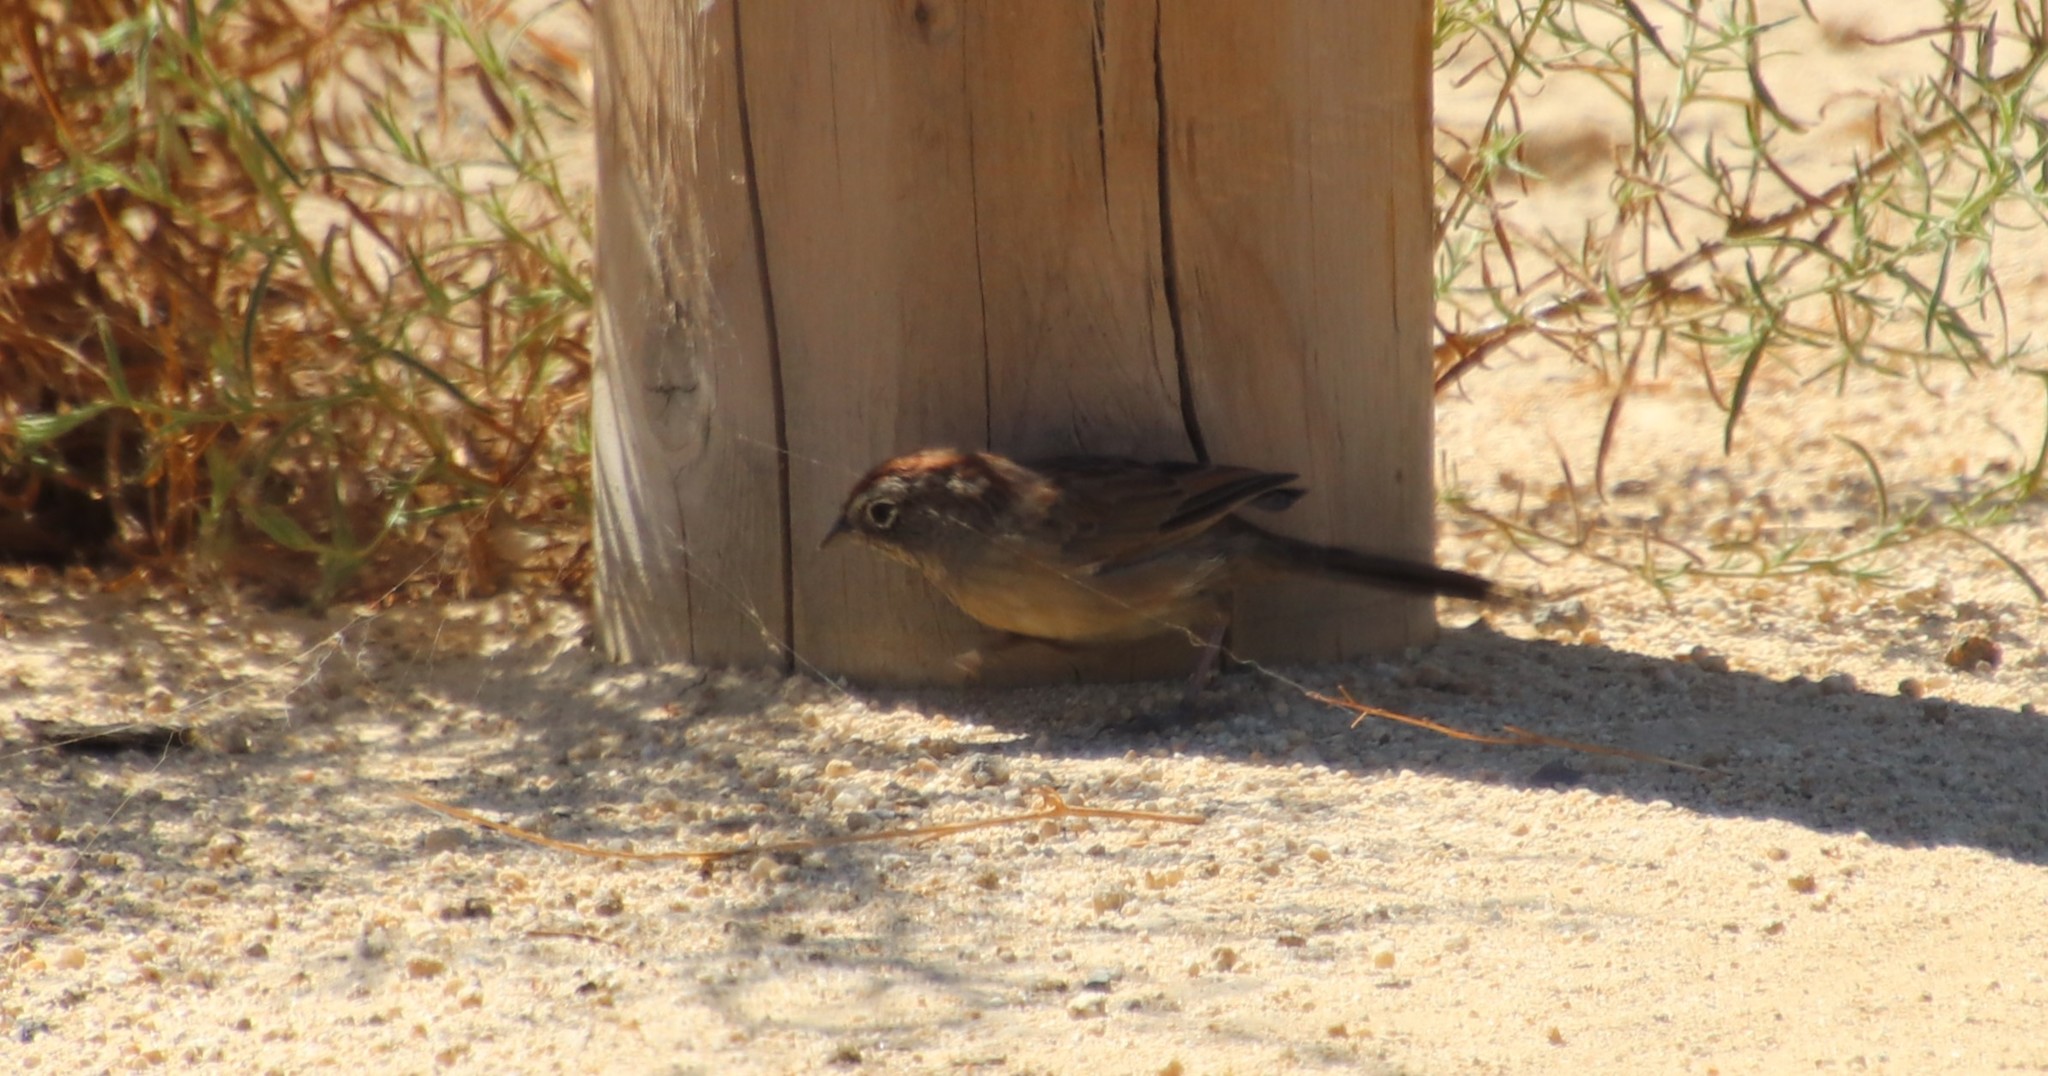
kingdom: Animalia
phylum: Chordata
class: Aves
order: Passeriformes
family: Passerellidae
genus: Aimophila
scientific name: Aimophila ruficeps
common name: Rufous-crowned sparrow
